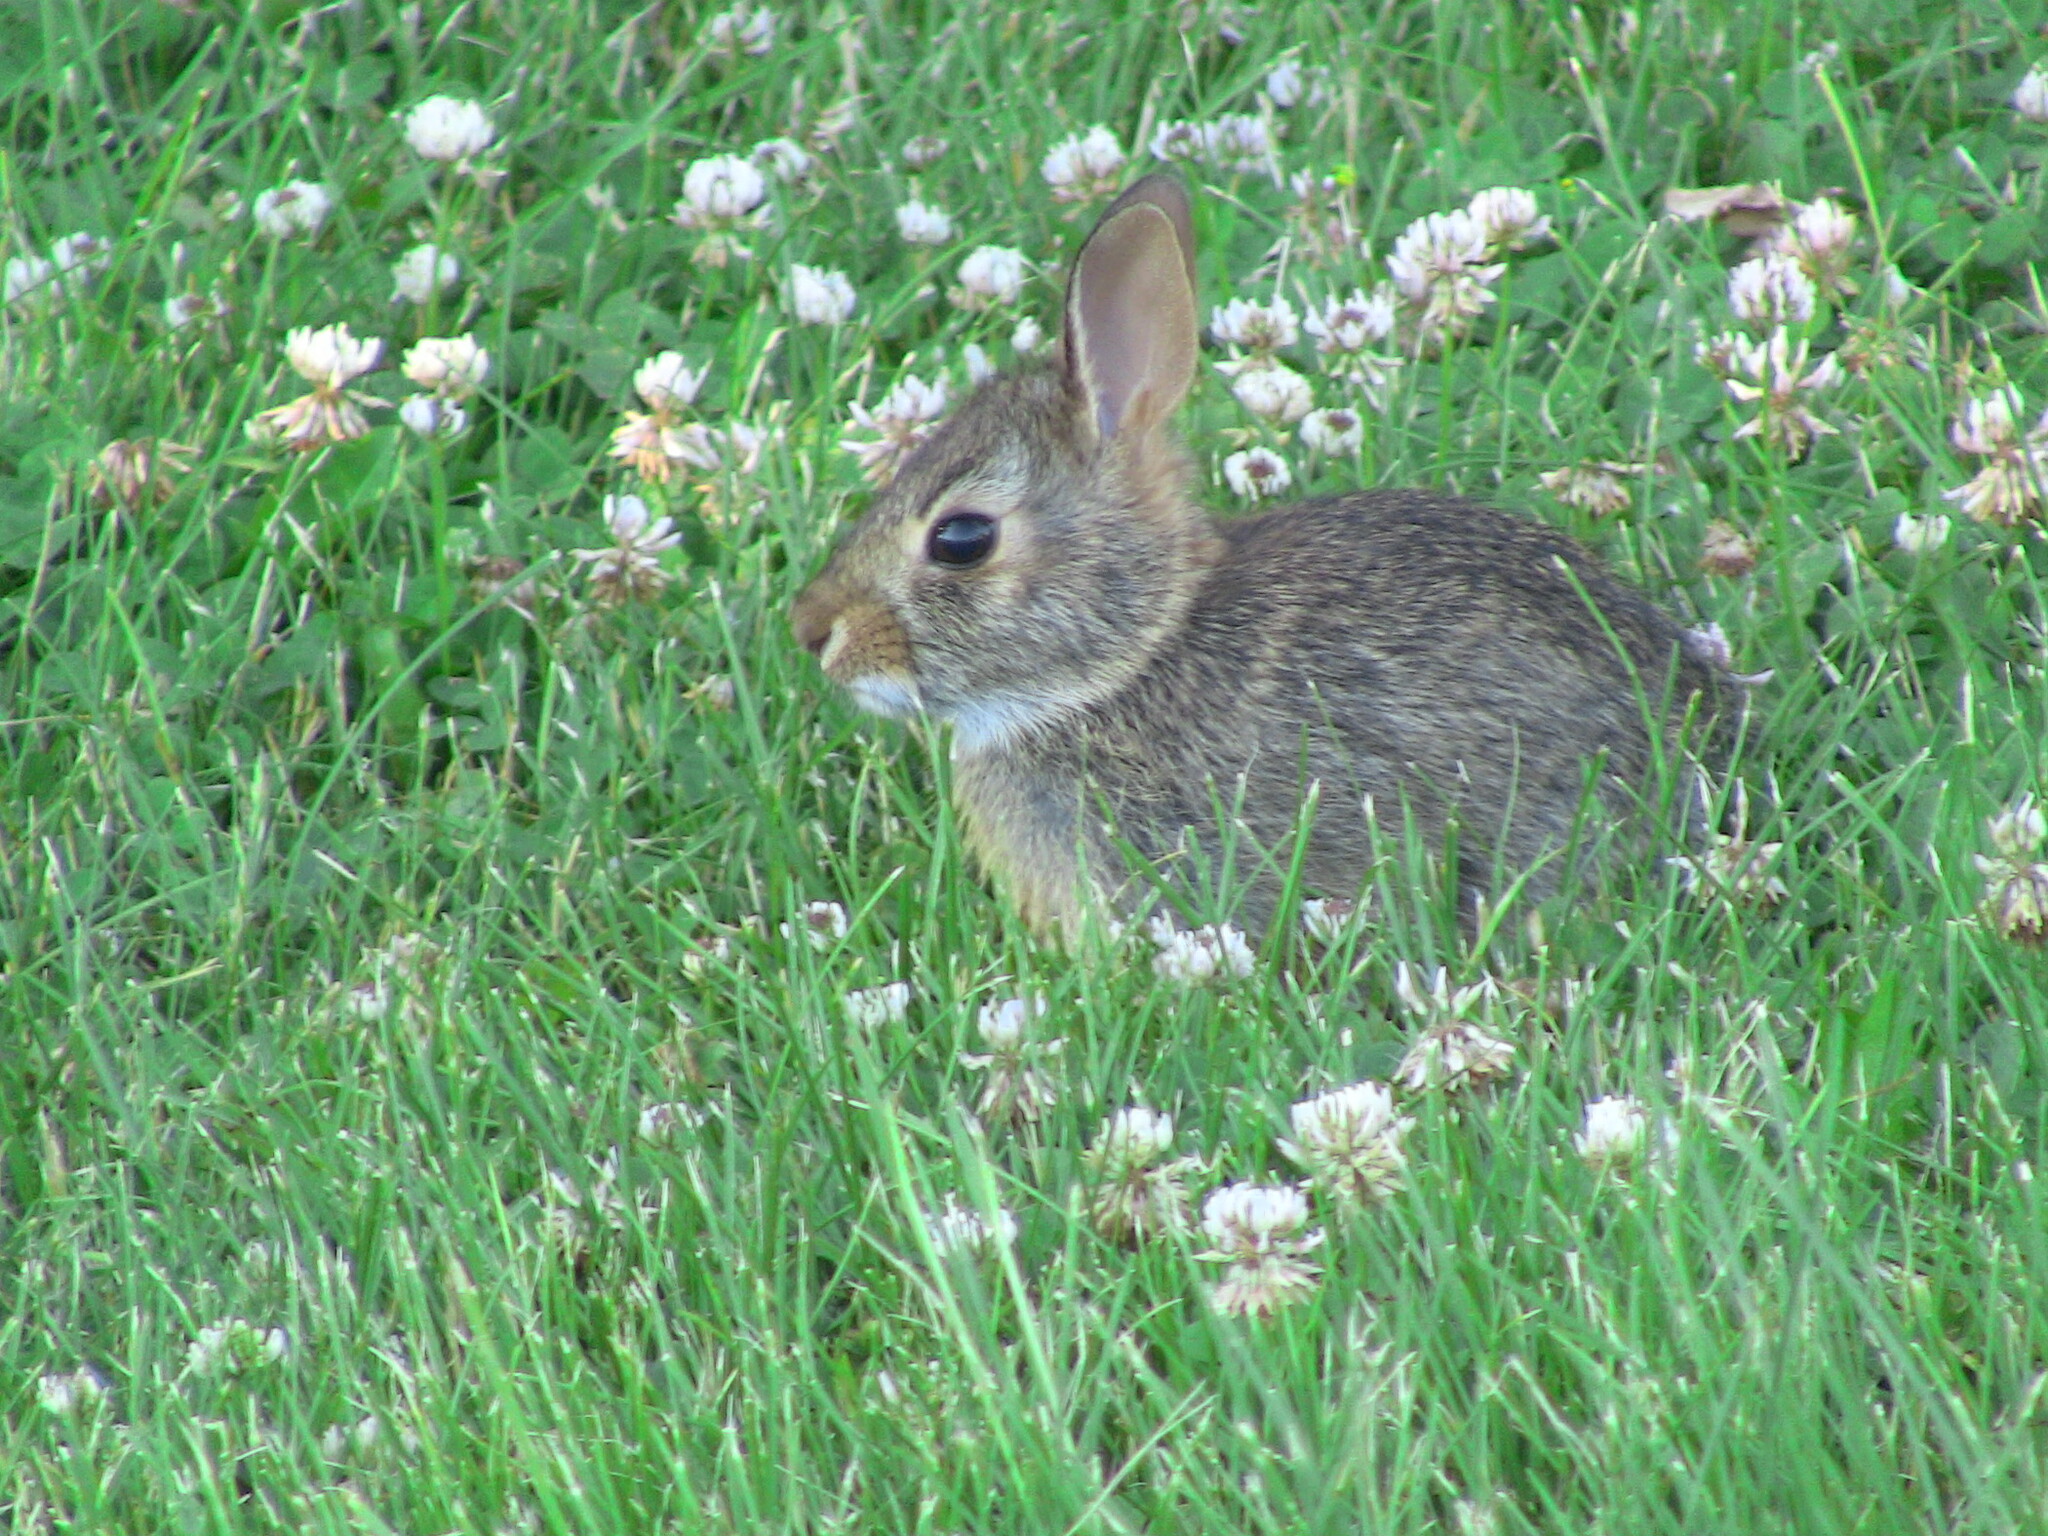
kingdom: Animalia
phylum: Chordata
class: Mammalia
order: Lagomorpha
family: Leporidae
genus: Sylvilagus
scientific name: Sylvilagus floridanus
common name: Eastern cottontail
